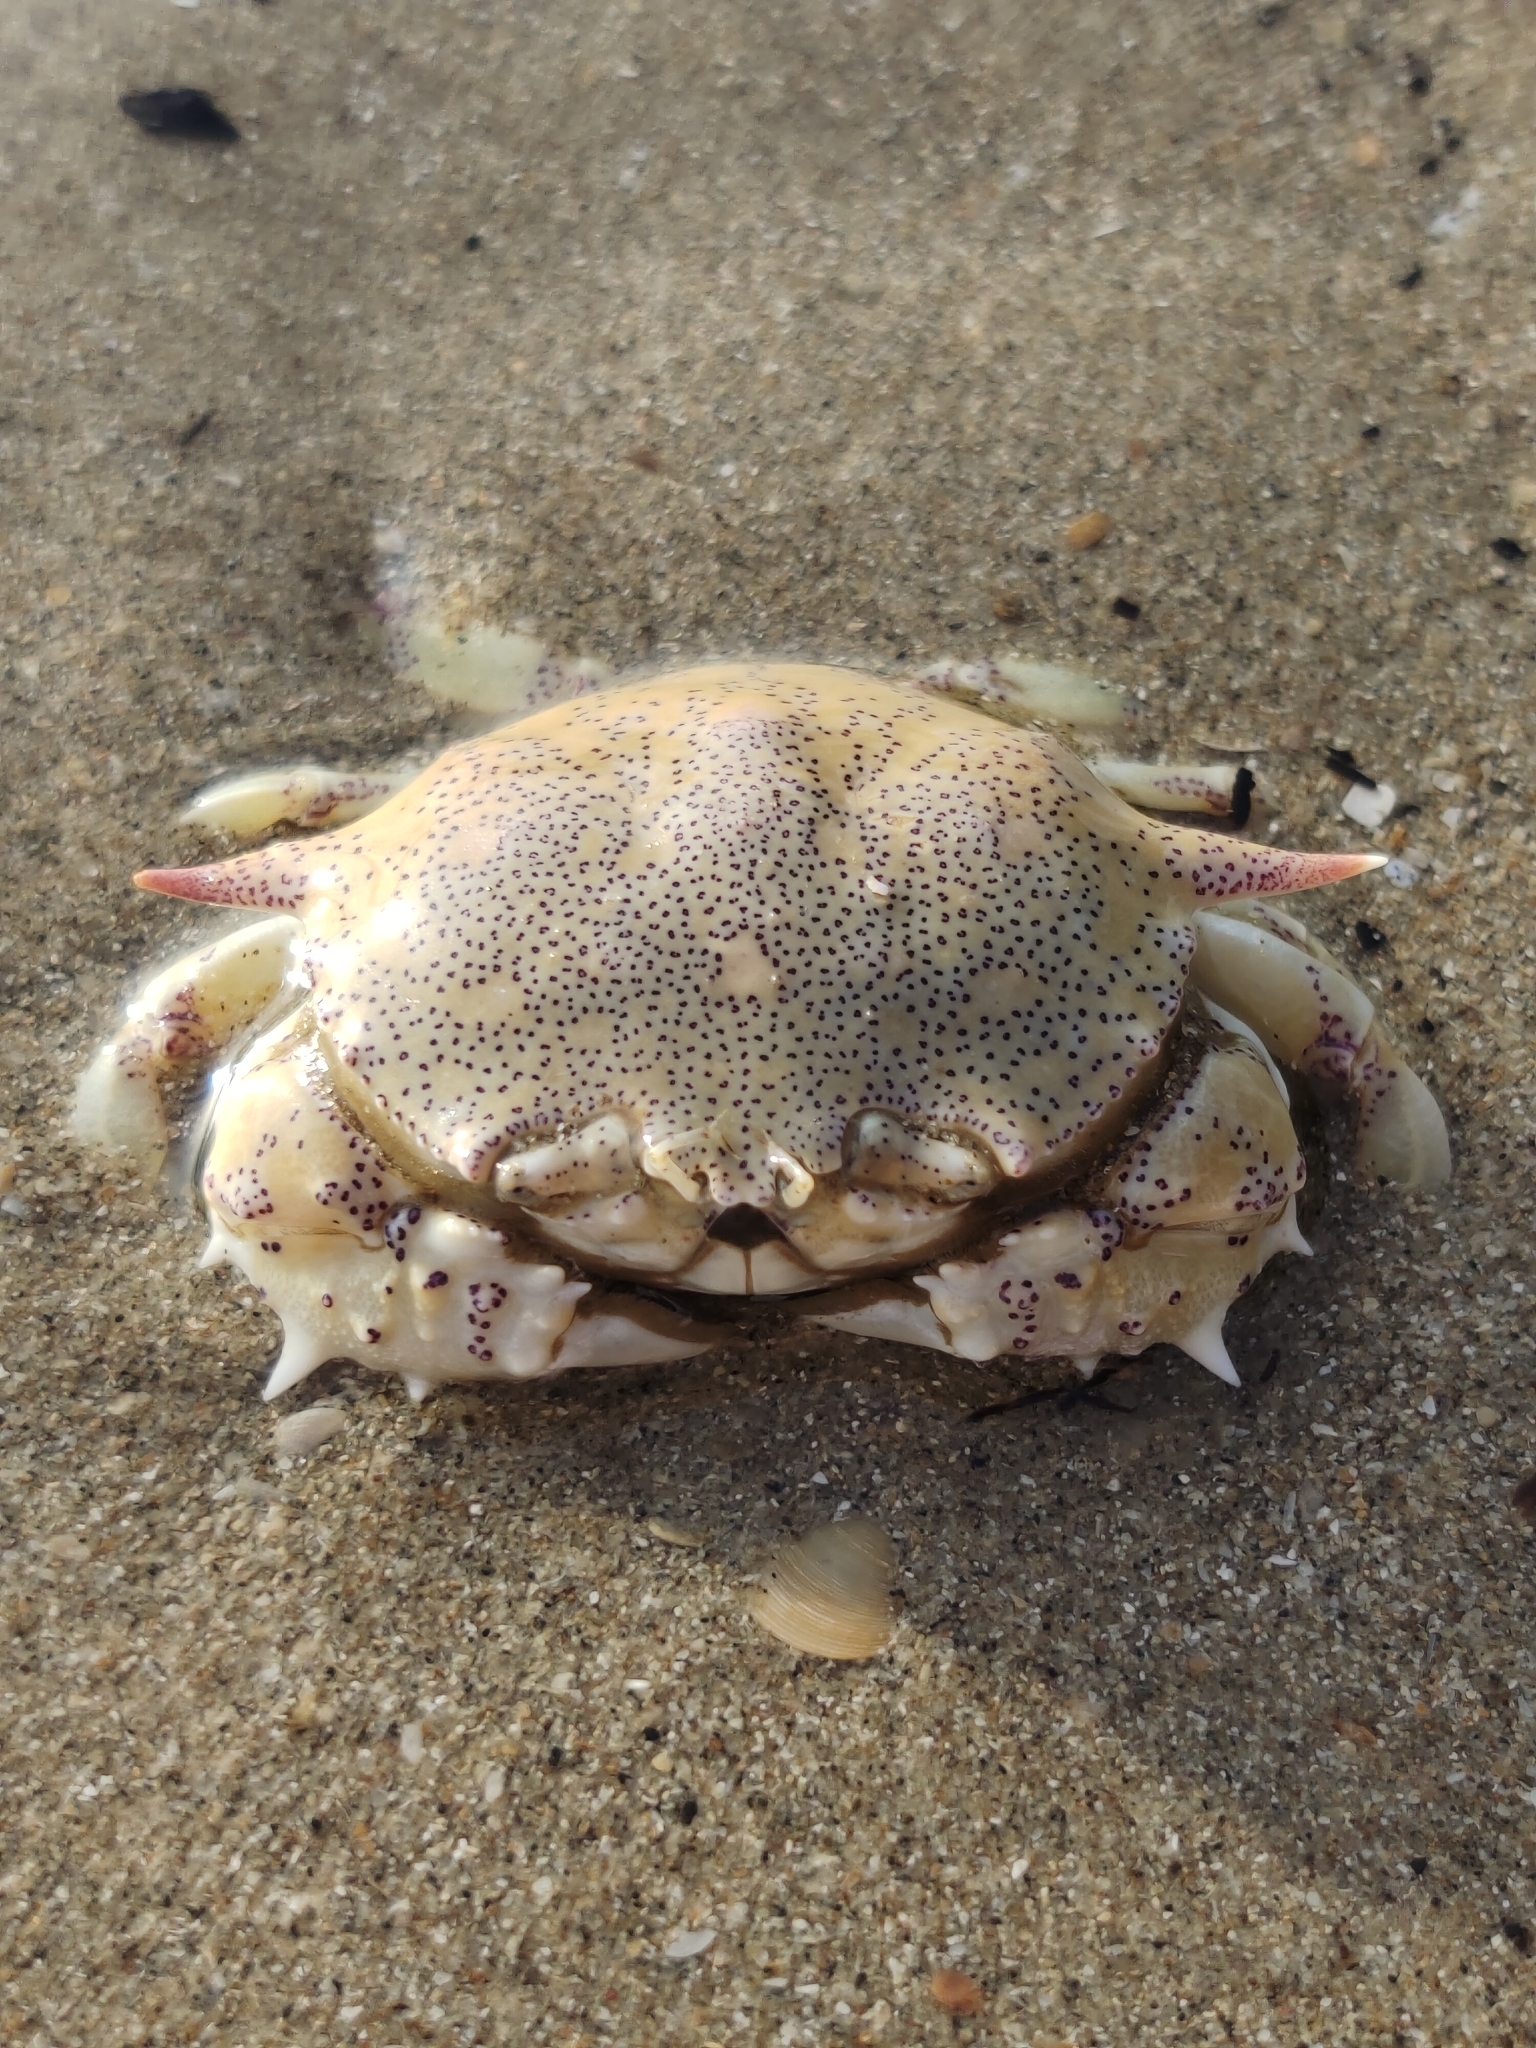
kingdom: Animalia
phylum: Arthropoda
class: Malacostraca
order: Decapoda
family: Matutidae
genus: Matuta
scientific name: Matuta victor
